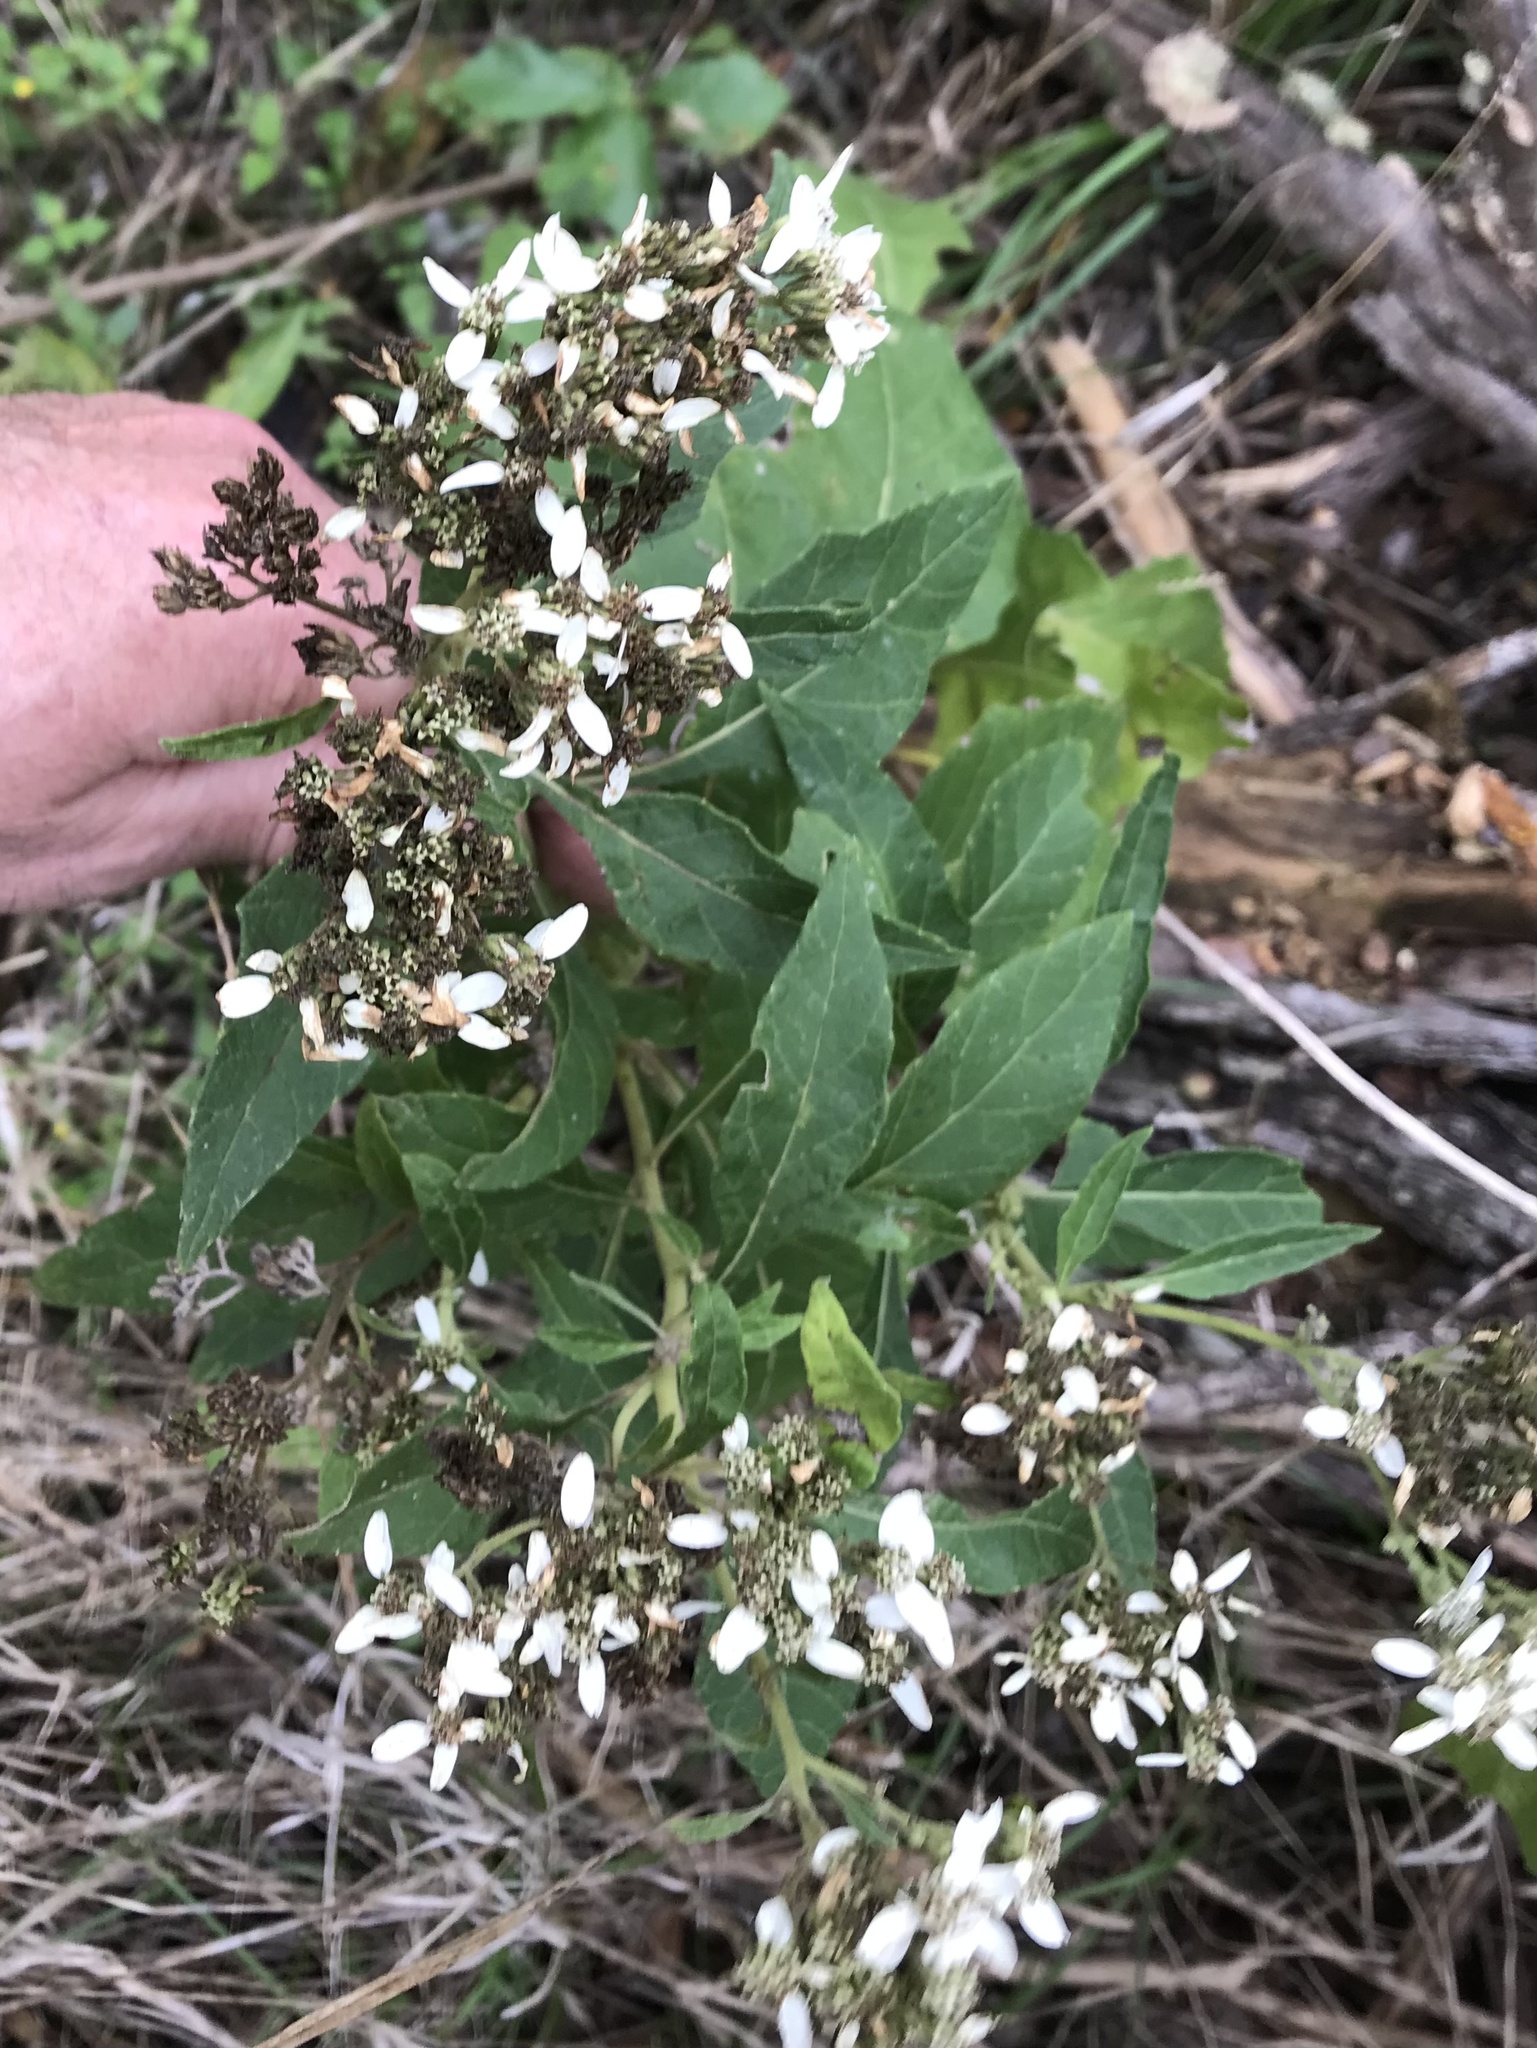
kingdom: Plantae
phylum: Tracheophyta
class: Magnoliopsida
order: Asterales
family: Asteraceae
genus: Verbesina
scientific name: Verbesina virginica
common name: Frostweed
